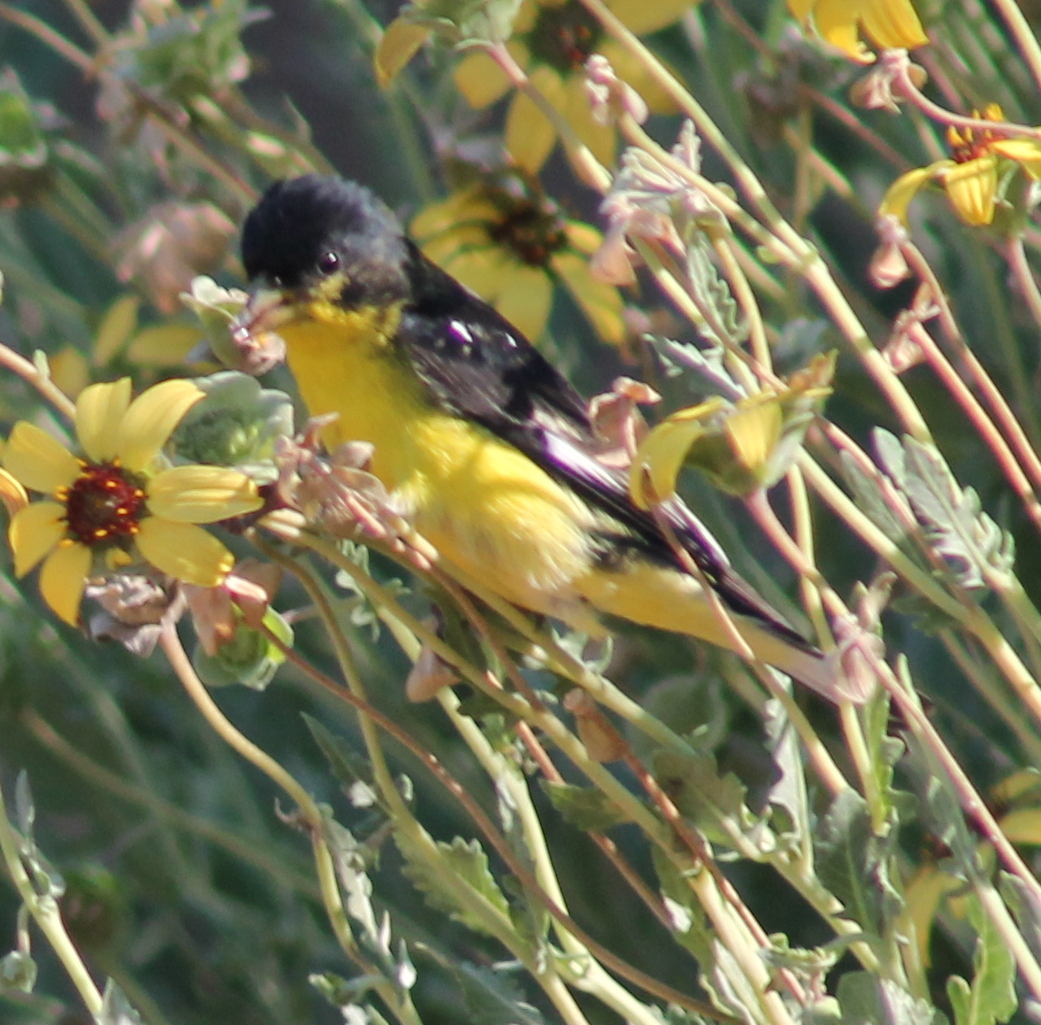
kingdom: Animalia
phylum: Chordata
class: Aves
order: Passeriformes
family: Fringillidae
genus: Spinus
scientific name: Spinus psaltria
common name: Lesser goldfinch
